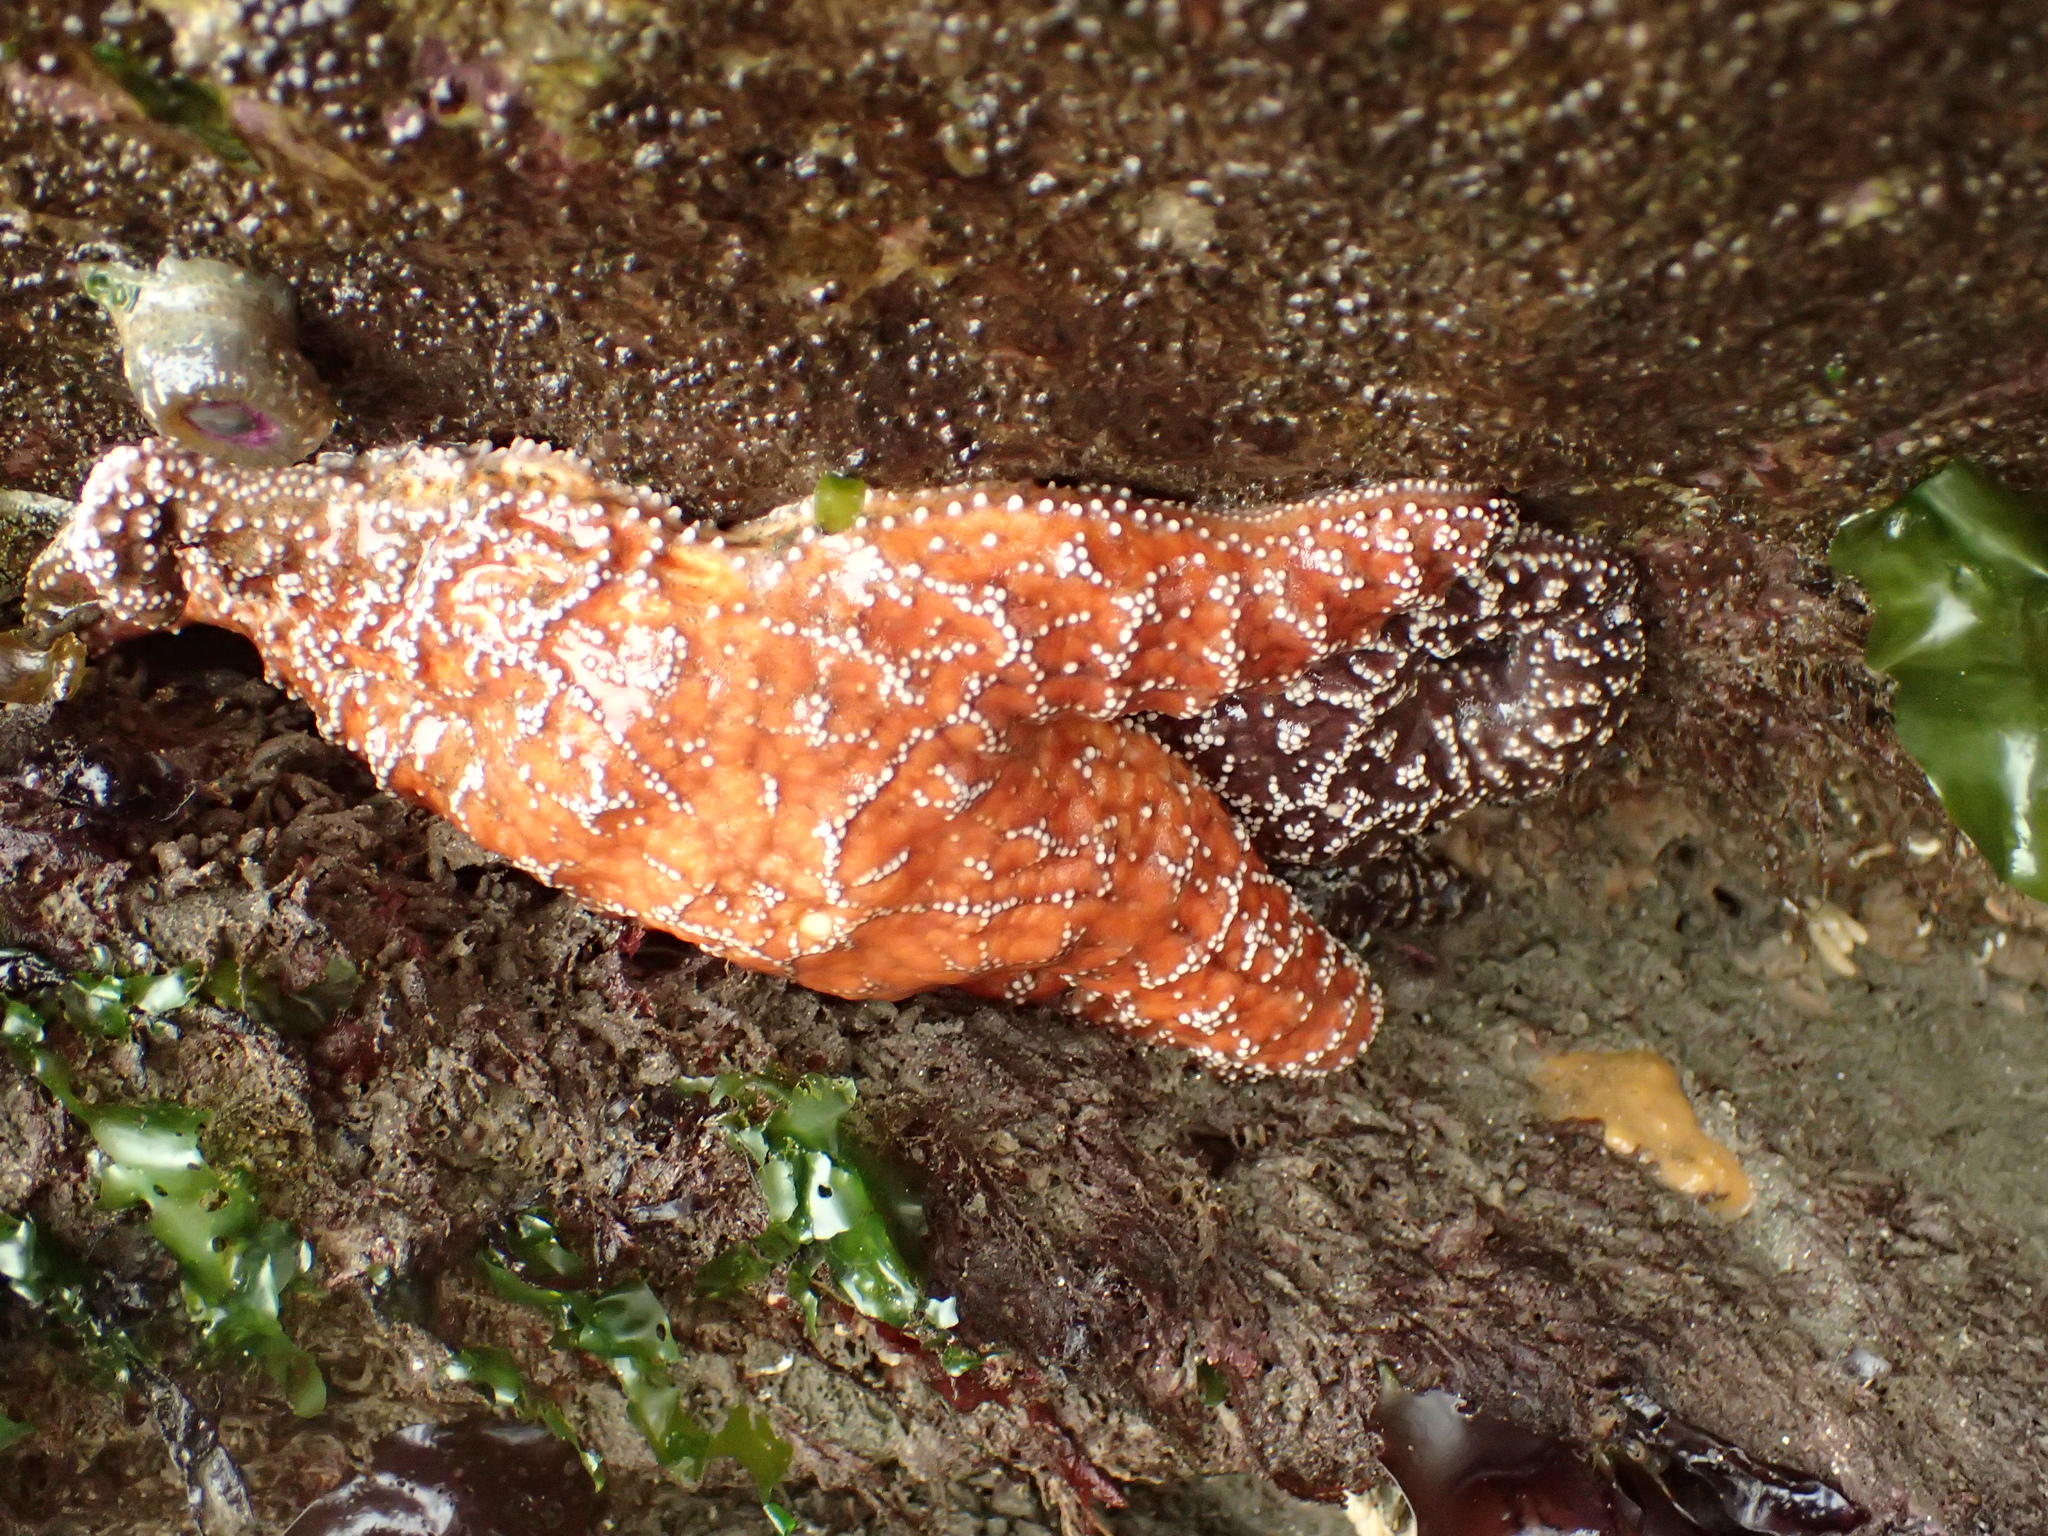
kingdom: Animalia
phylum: Echinodermata
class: Asteroidea
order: Forcipulatida
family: Asteriidae
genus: Pisaster
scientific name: Pisaster ochraceus
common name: Ochre stars
